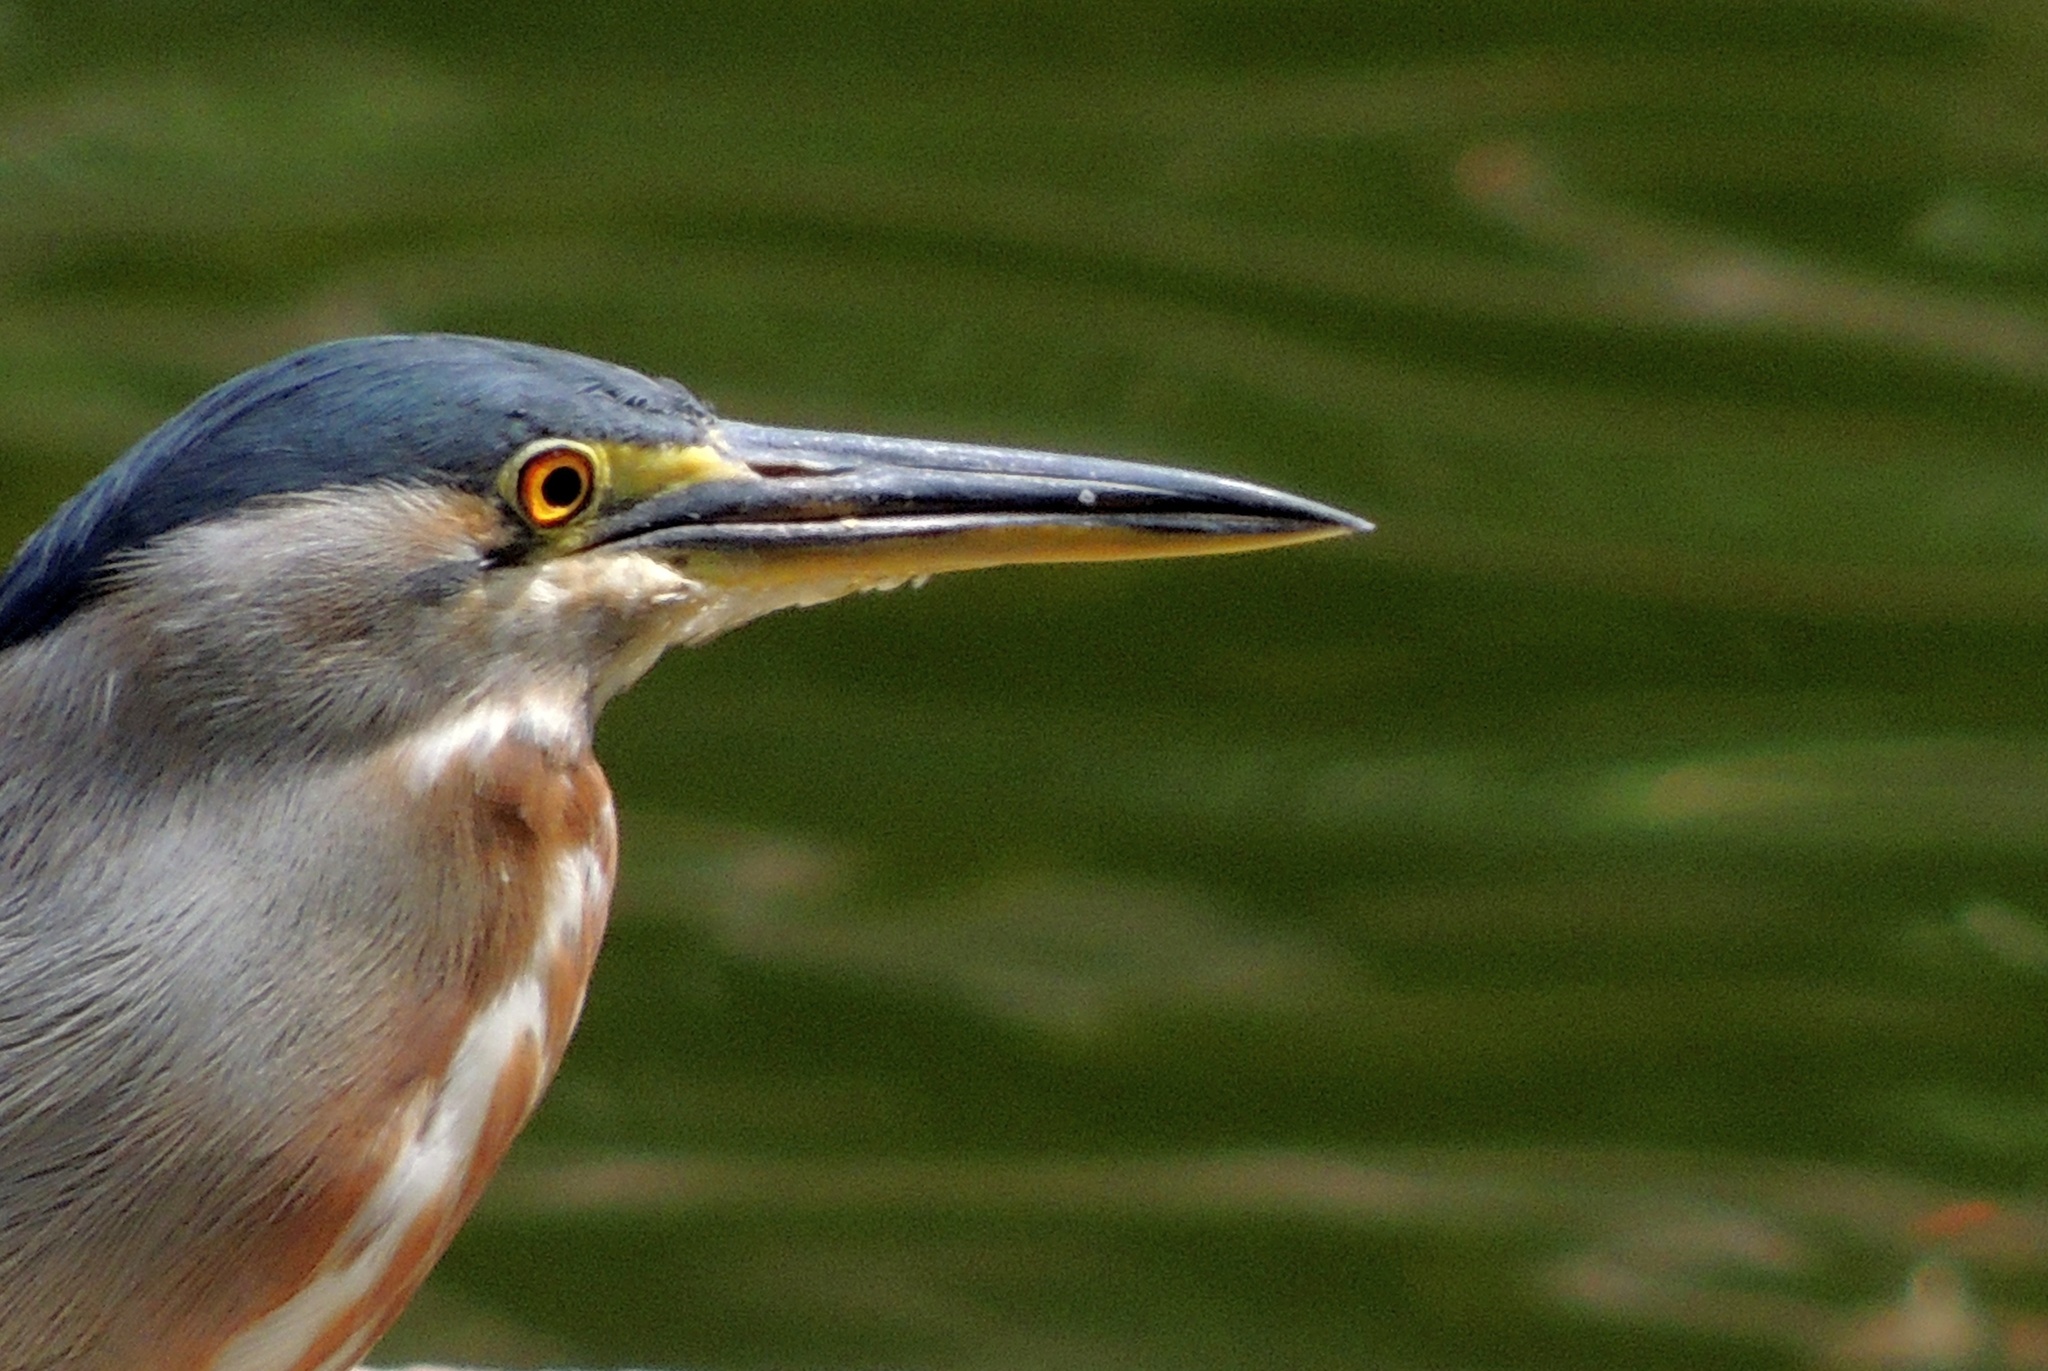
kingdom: Animalia
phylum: Chordata
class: Aves
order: Pelecaniformes
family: Ardeidae
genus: Butorides
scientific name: Butorides striata
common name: Striated heron
